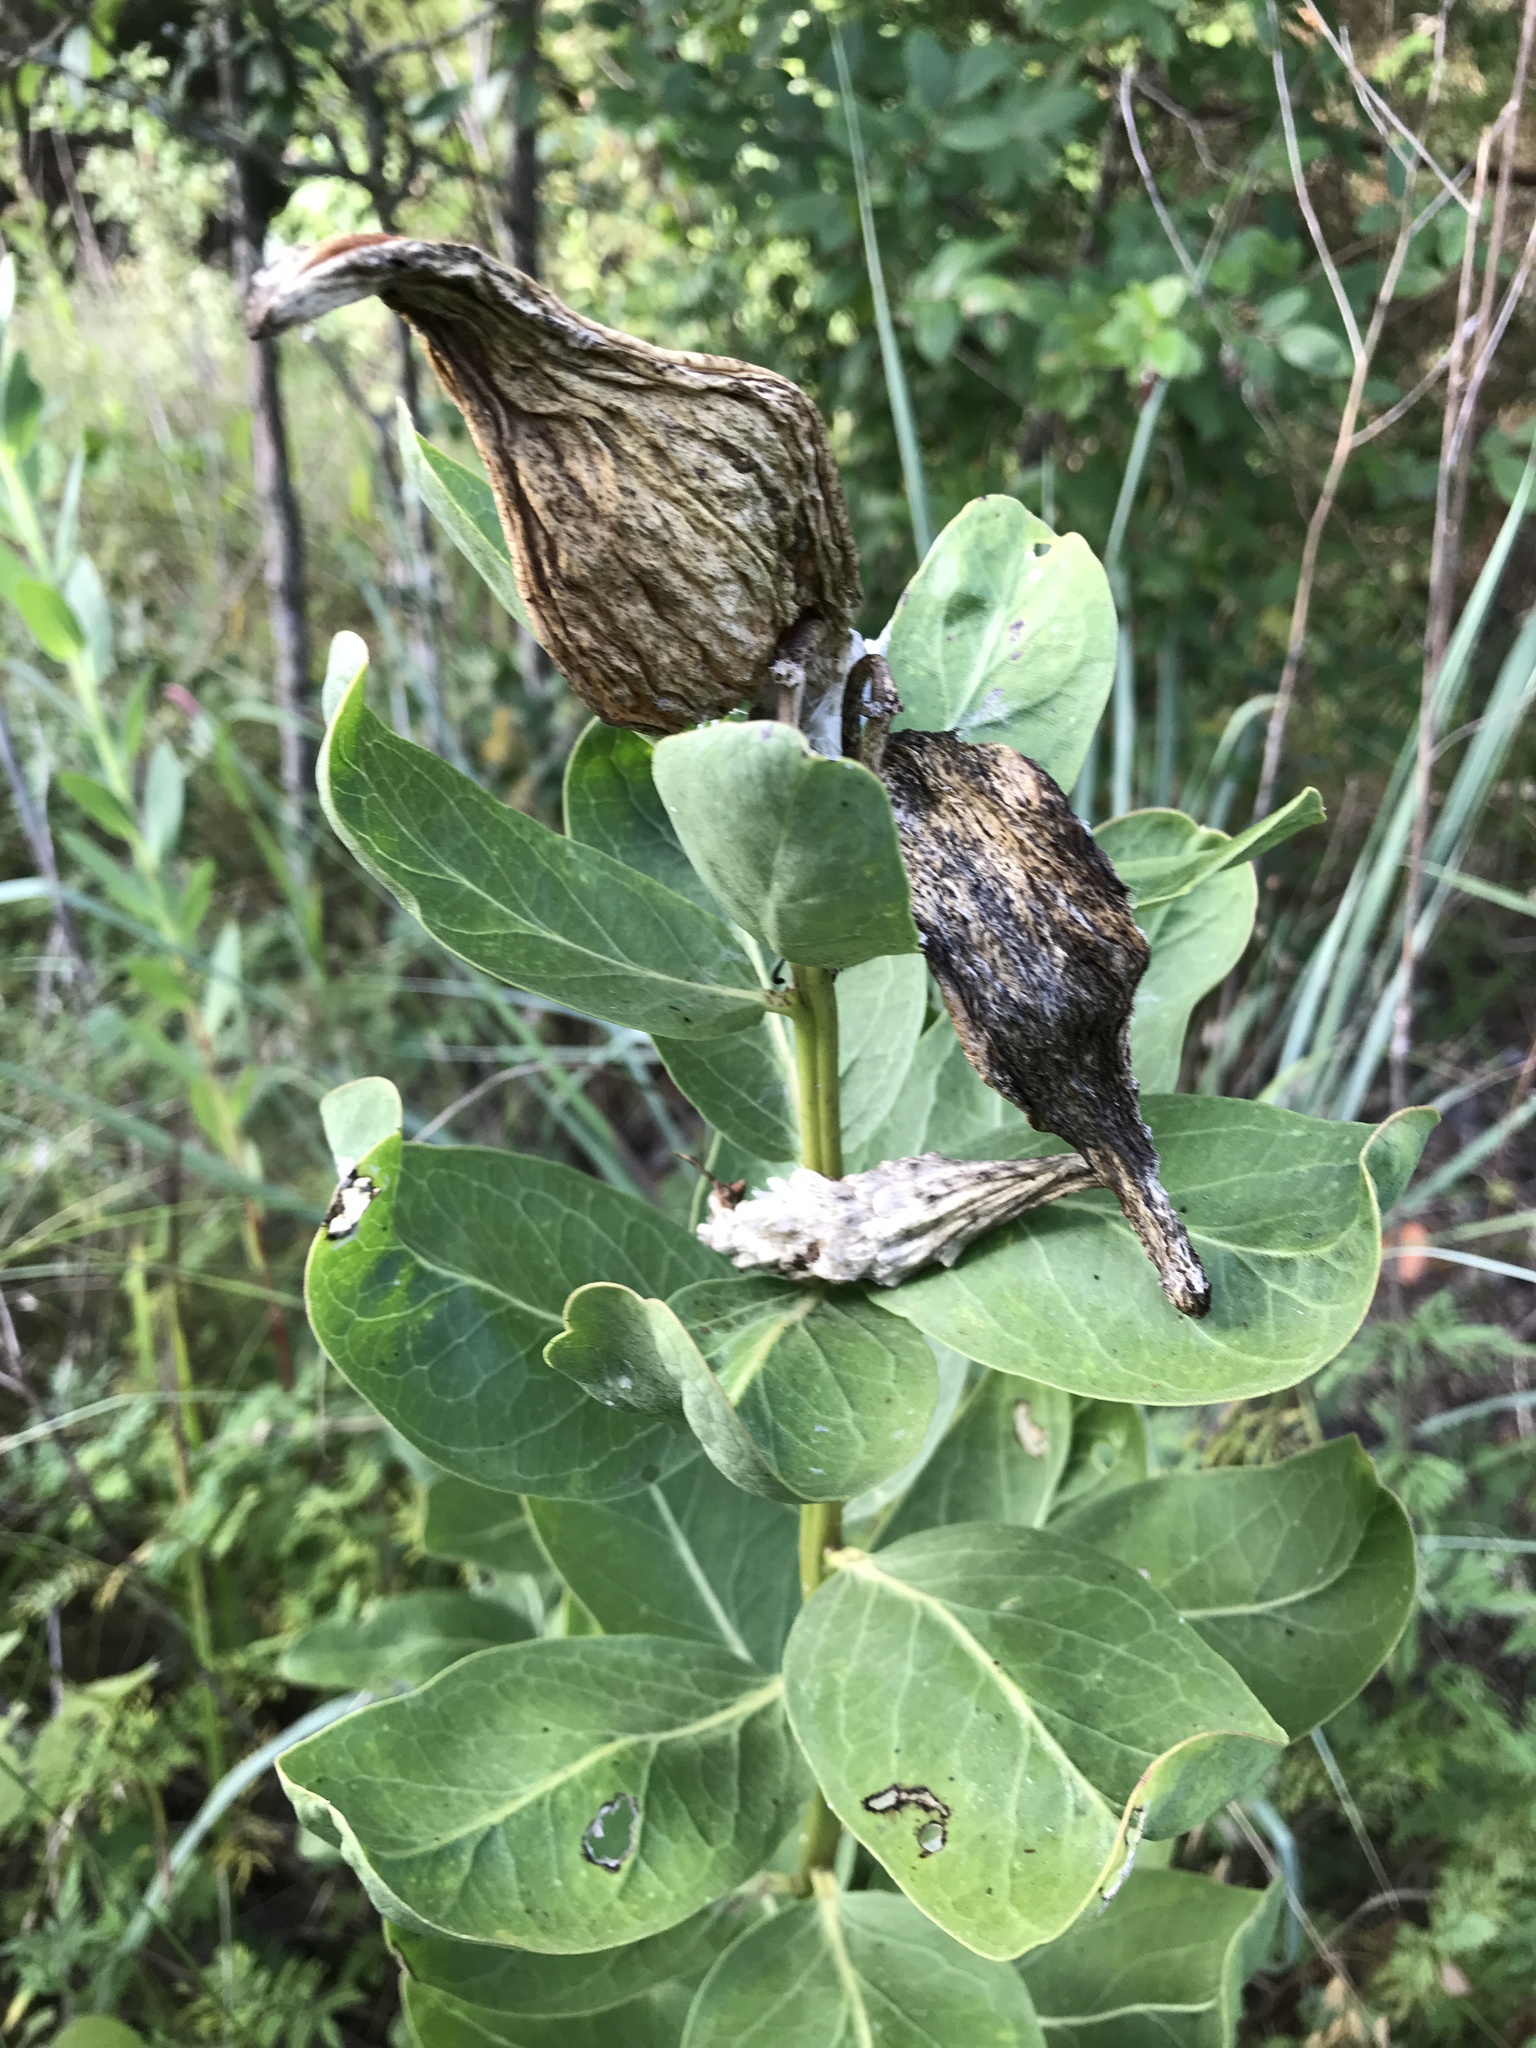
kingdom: Plantae
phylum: Tracheophyta
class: Magnoliopsida
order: Gentianales
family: Apocynaceae
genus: Asclepias
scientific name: Asclepias viridis
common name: Antelope-horns
